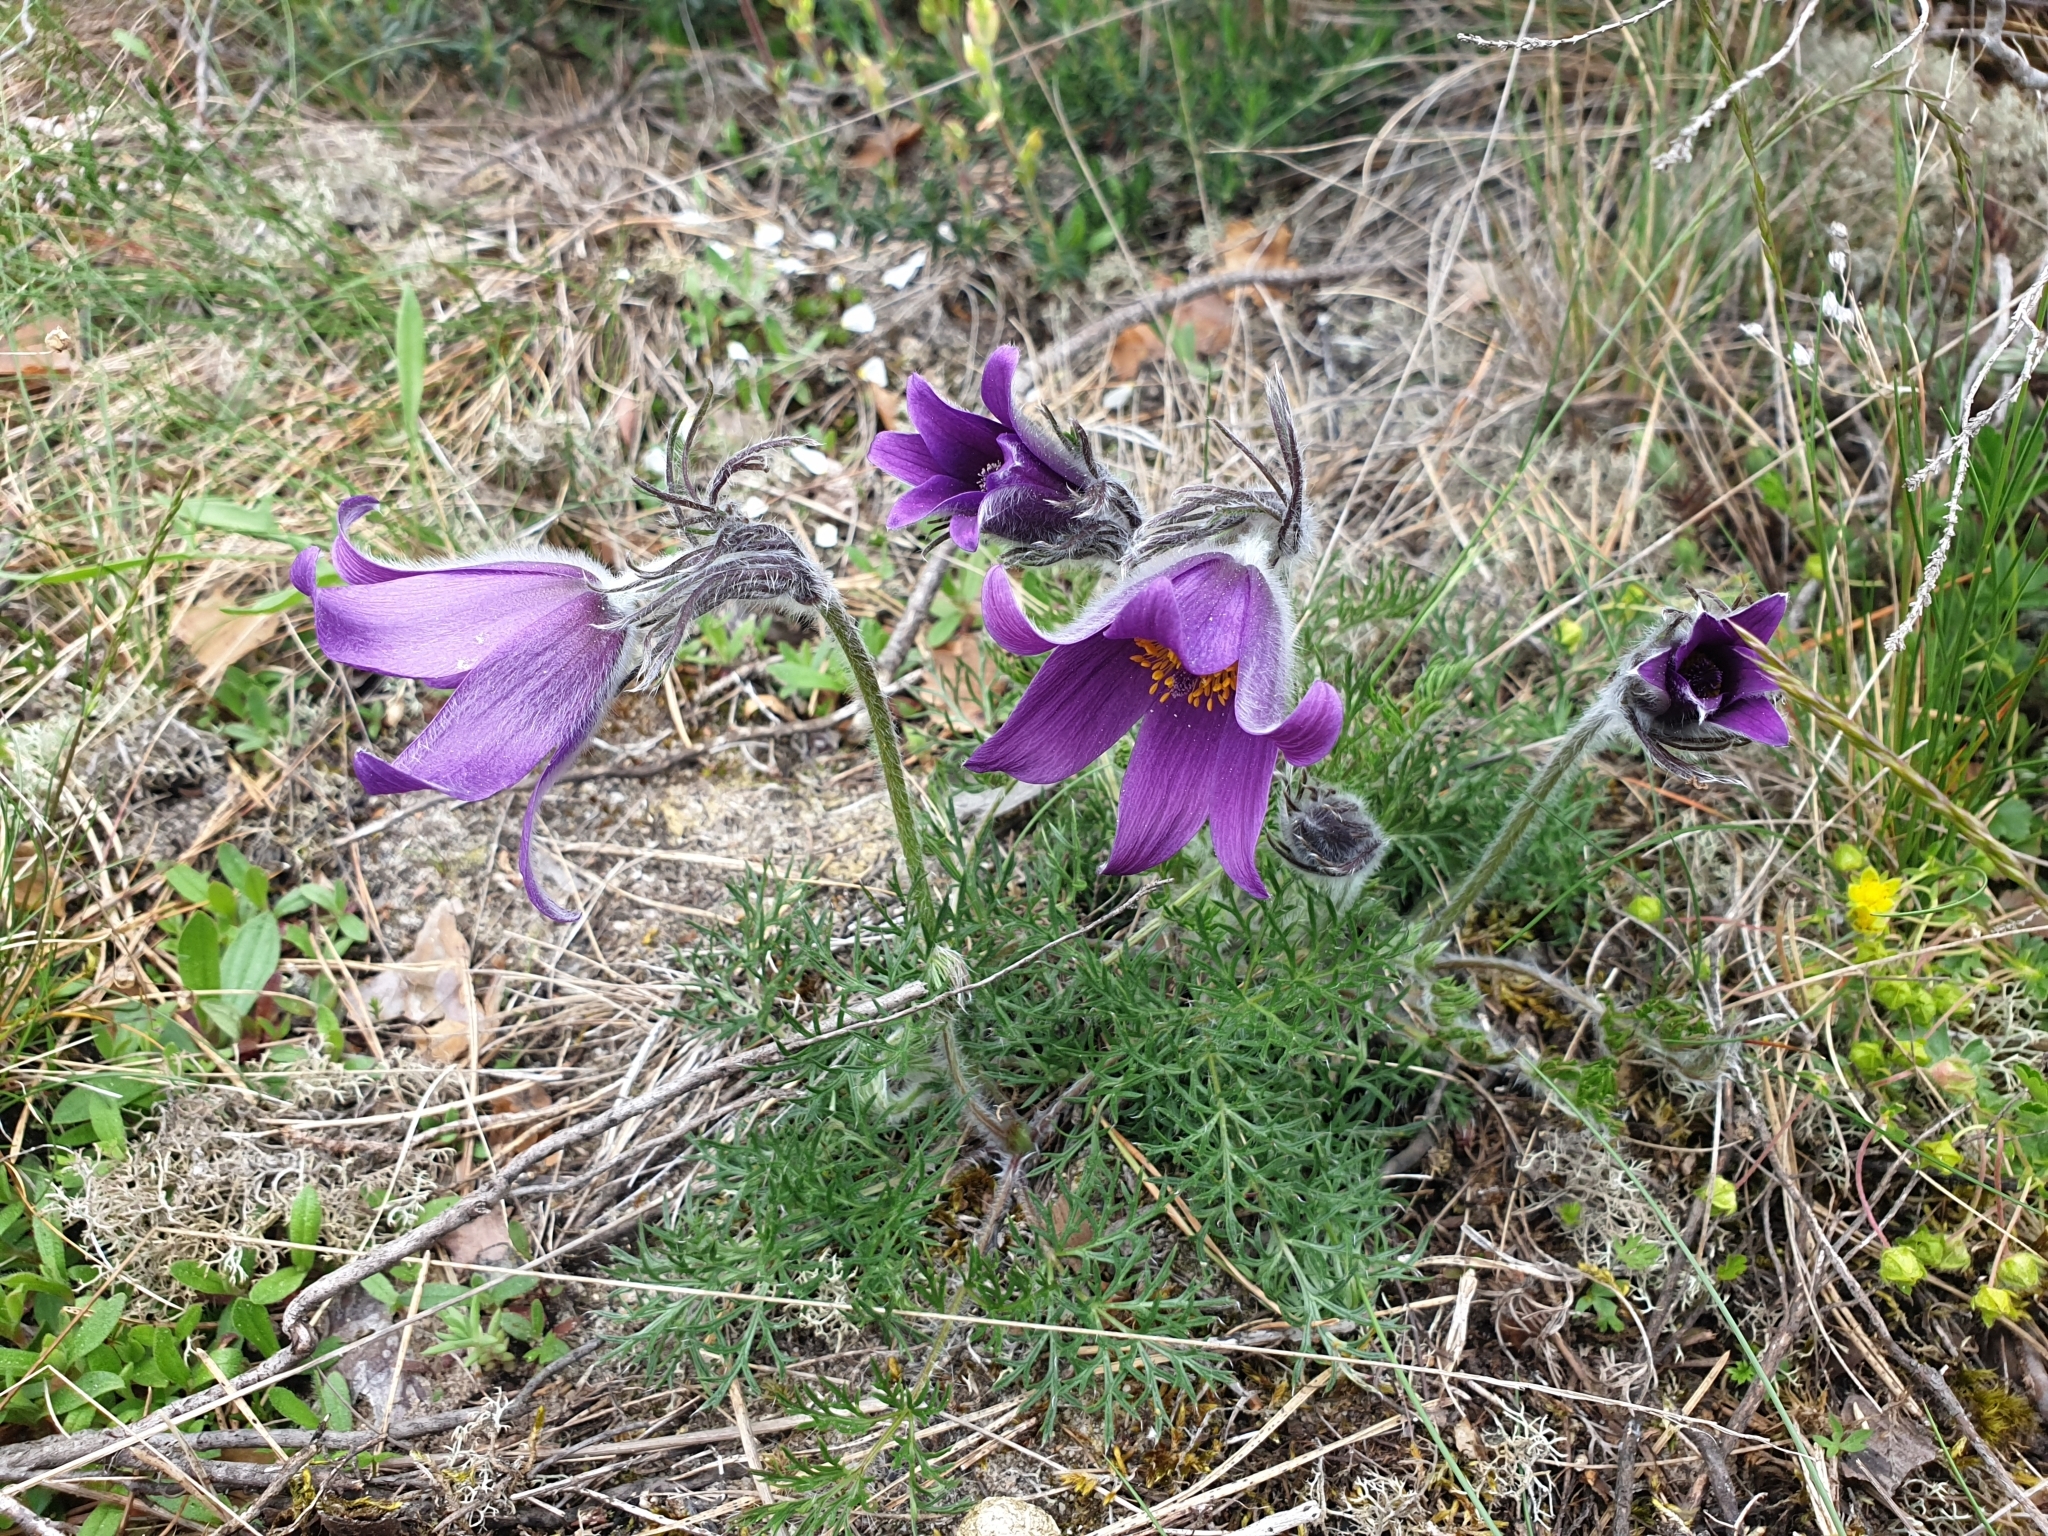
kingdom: Plantae
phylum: Tracheophyta
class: Magnoliopsida
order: Ranunculales
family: Ranunculaceae
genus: Pulsatilla
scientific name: Pulsatilla vulgaris
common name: Pasqueflower
